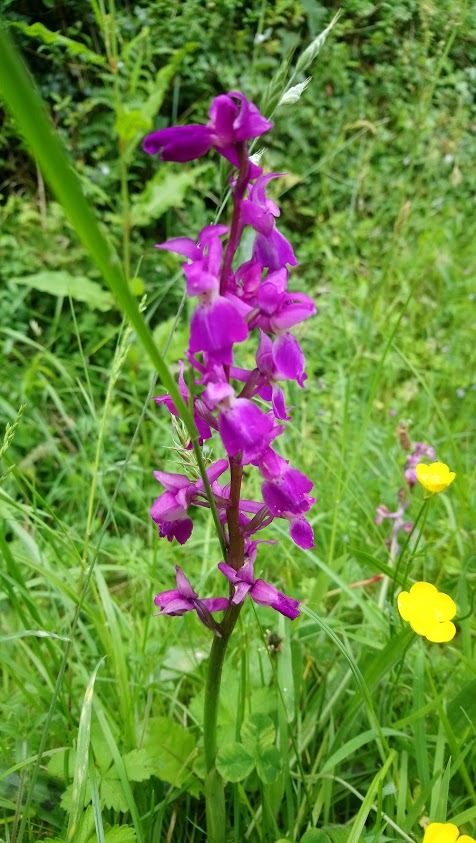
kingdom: Plantae
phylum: Tracheophyta
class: Liliopsida
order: Asparagales
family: Orchidaceae
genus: Orchis
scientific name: Orchis mascula
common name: Early-purple orchid
